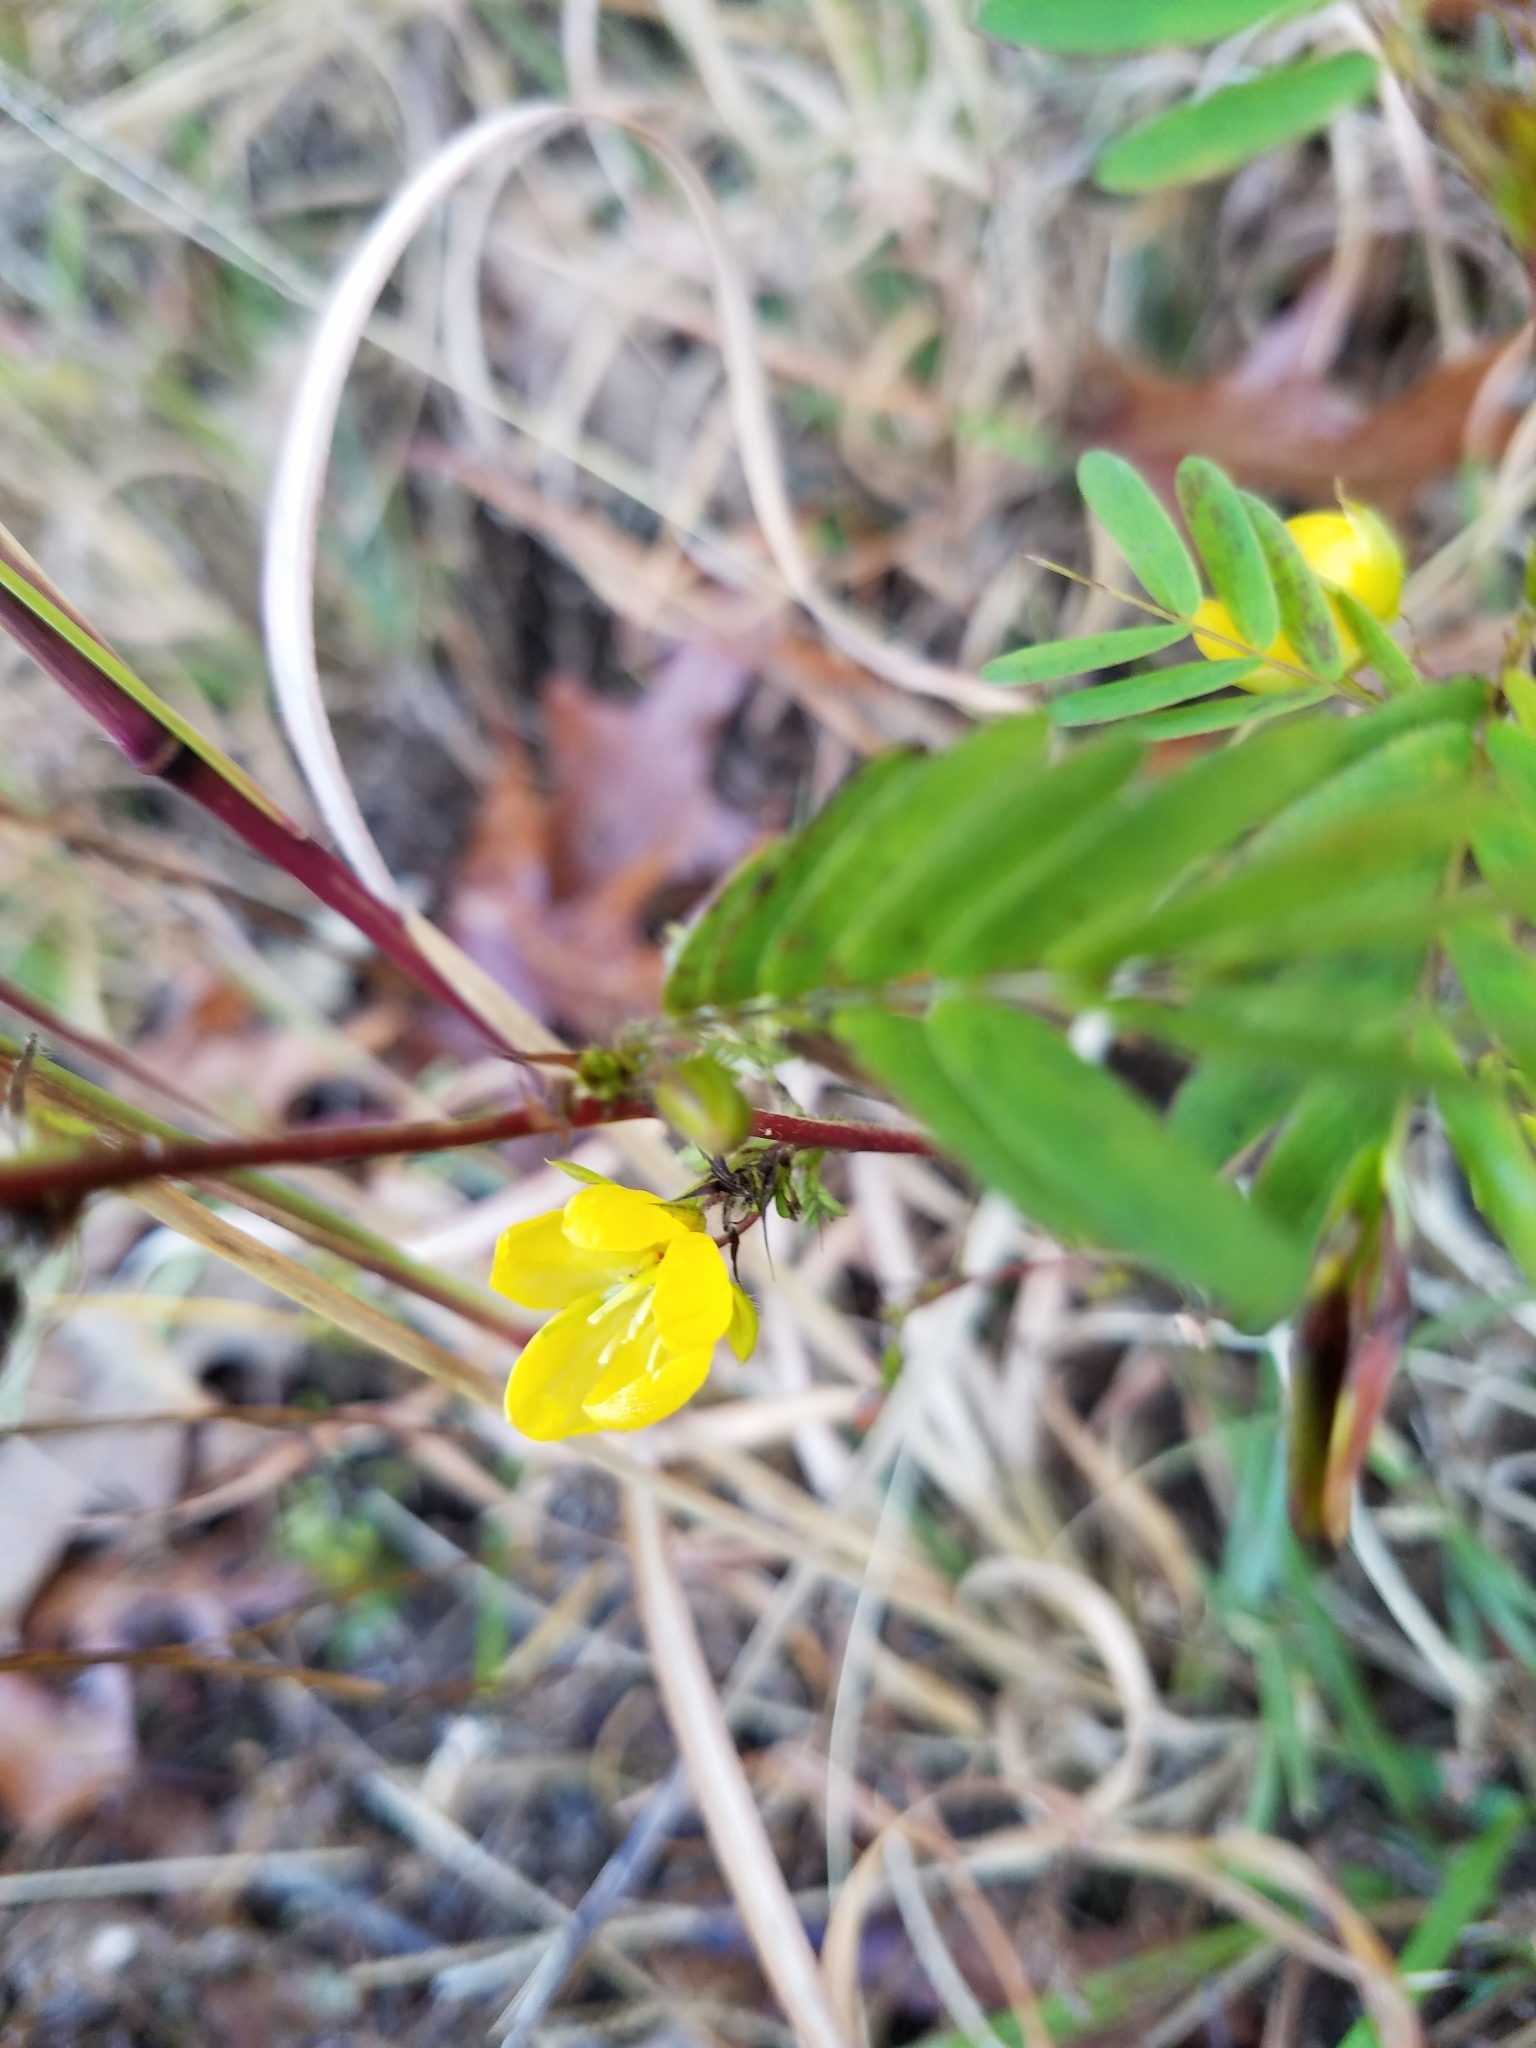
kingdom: Plantae
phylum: Tracheophyta
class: Magnoliopsida
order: Fabales
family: Fabaceae
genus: Chamaecrista
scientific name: Chamaecrista nictitans
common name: Sensitive cassia
